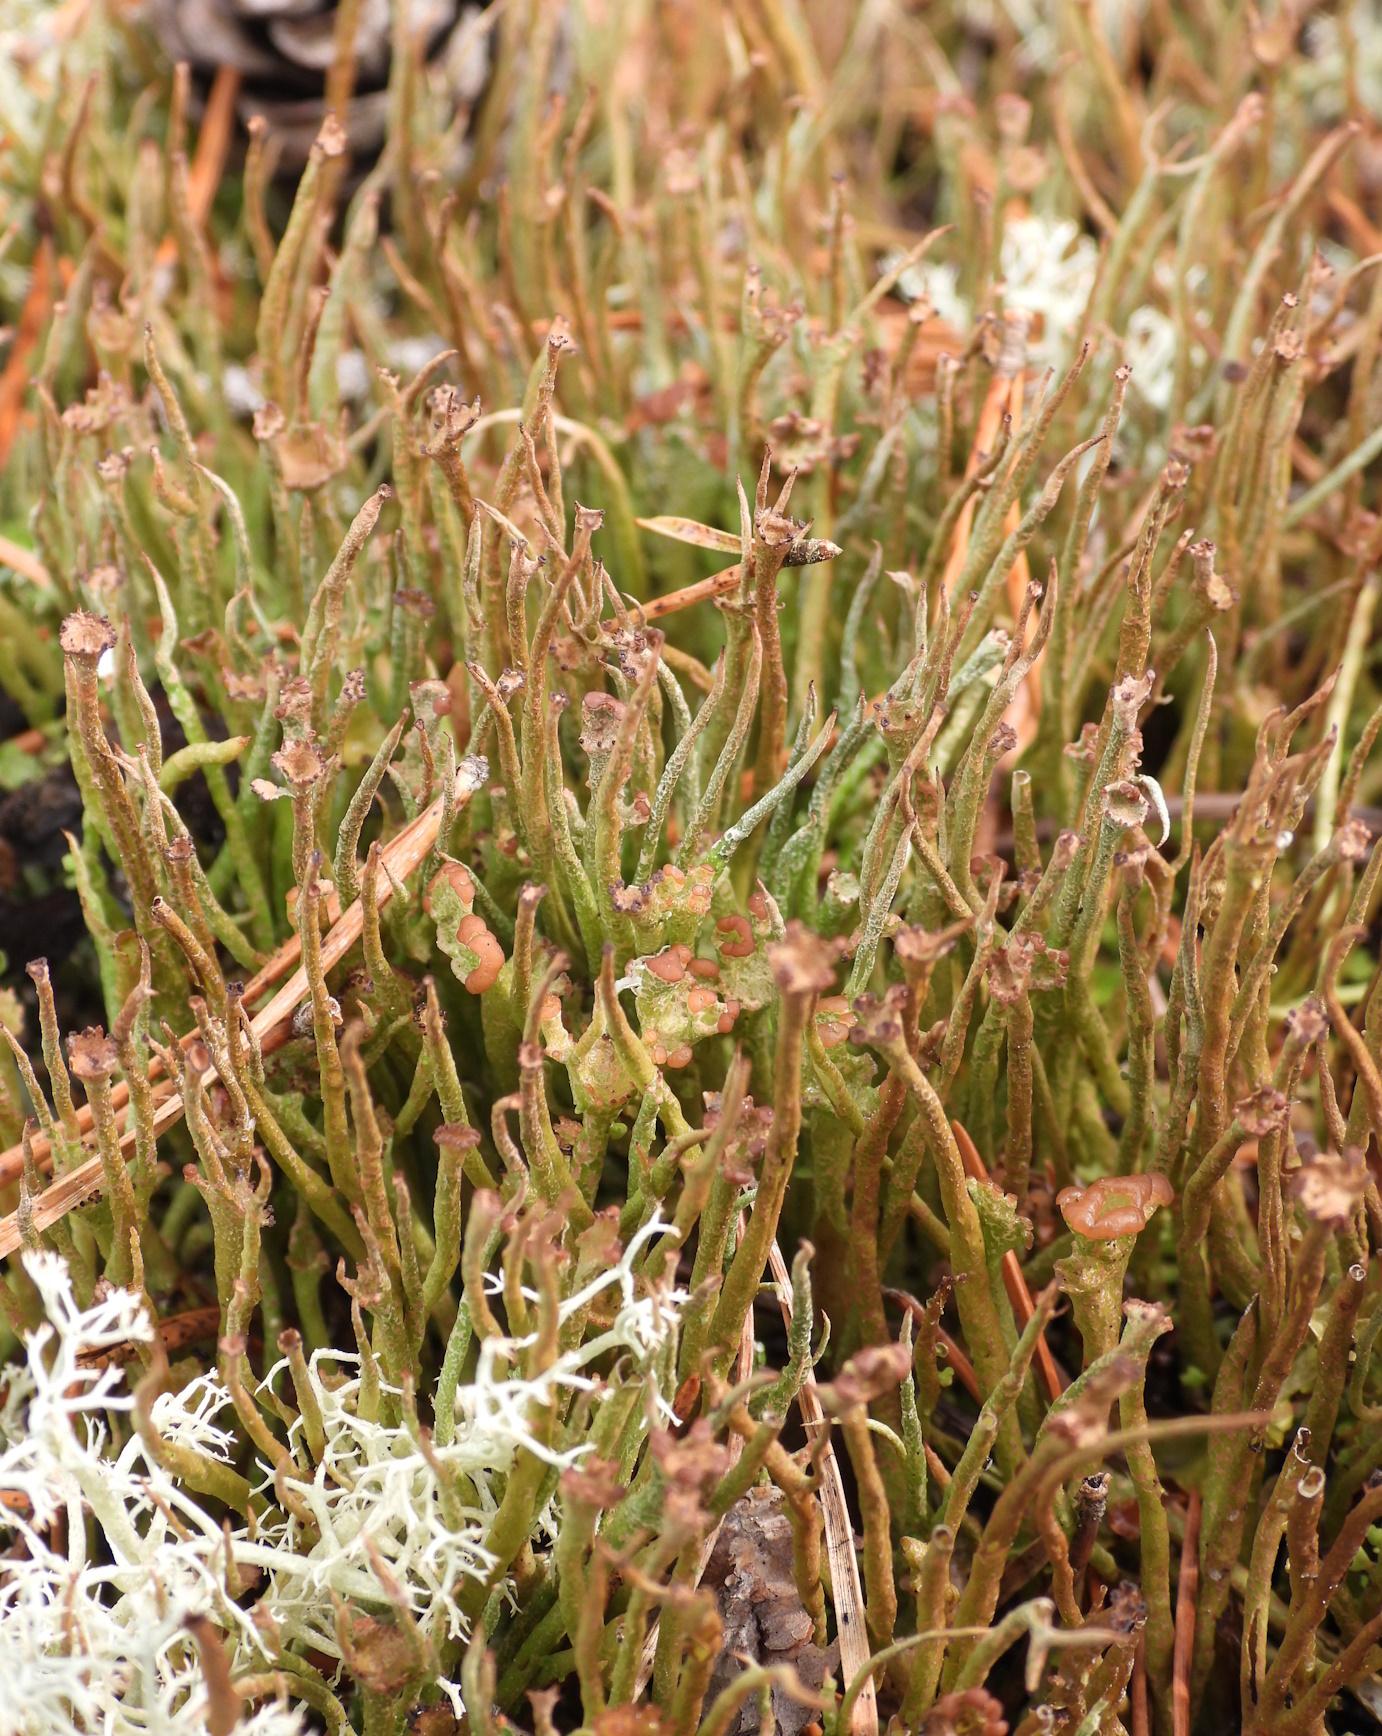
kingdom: Fungi
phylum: Ascomycota
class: Lecanoromycetes
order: Lecanorales
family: Cladoniaceae
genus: Cladonia
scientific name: Cladonia gracilis
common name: Smooth clad lichen
